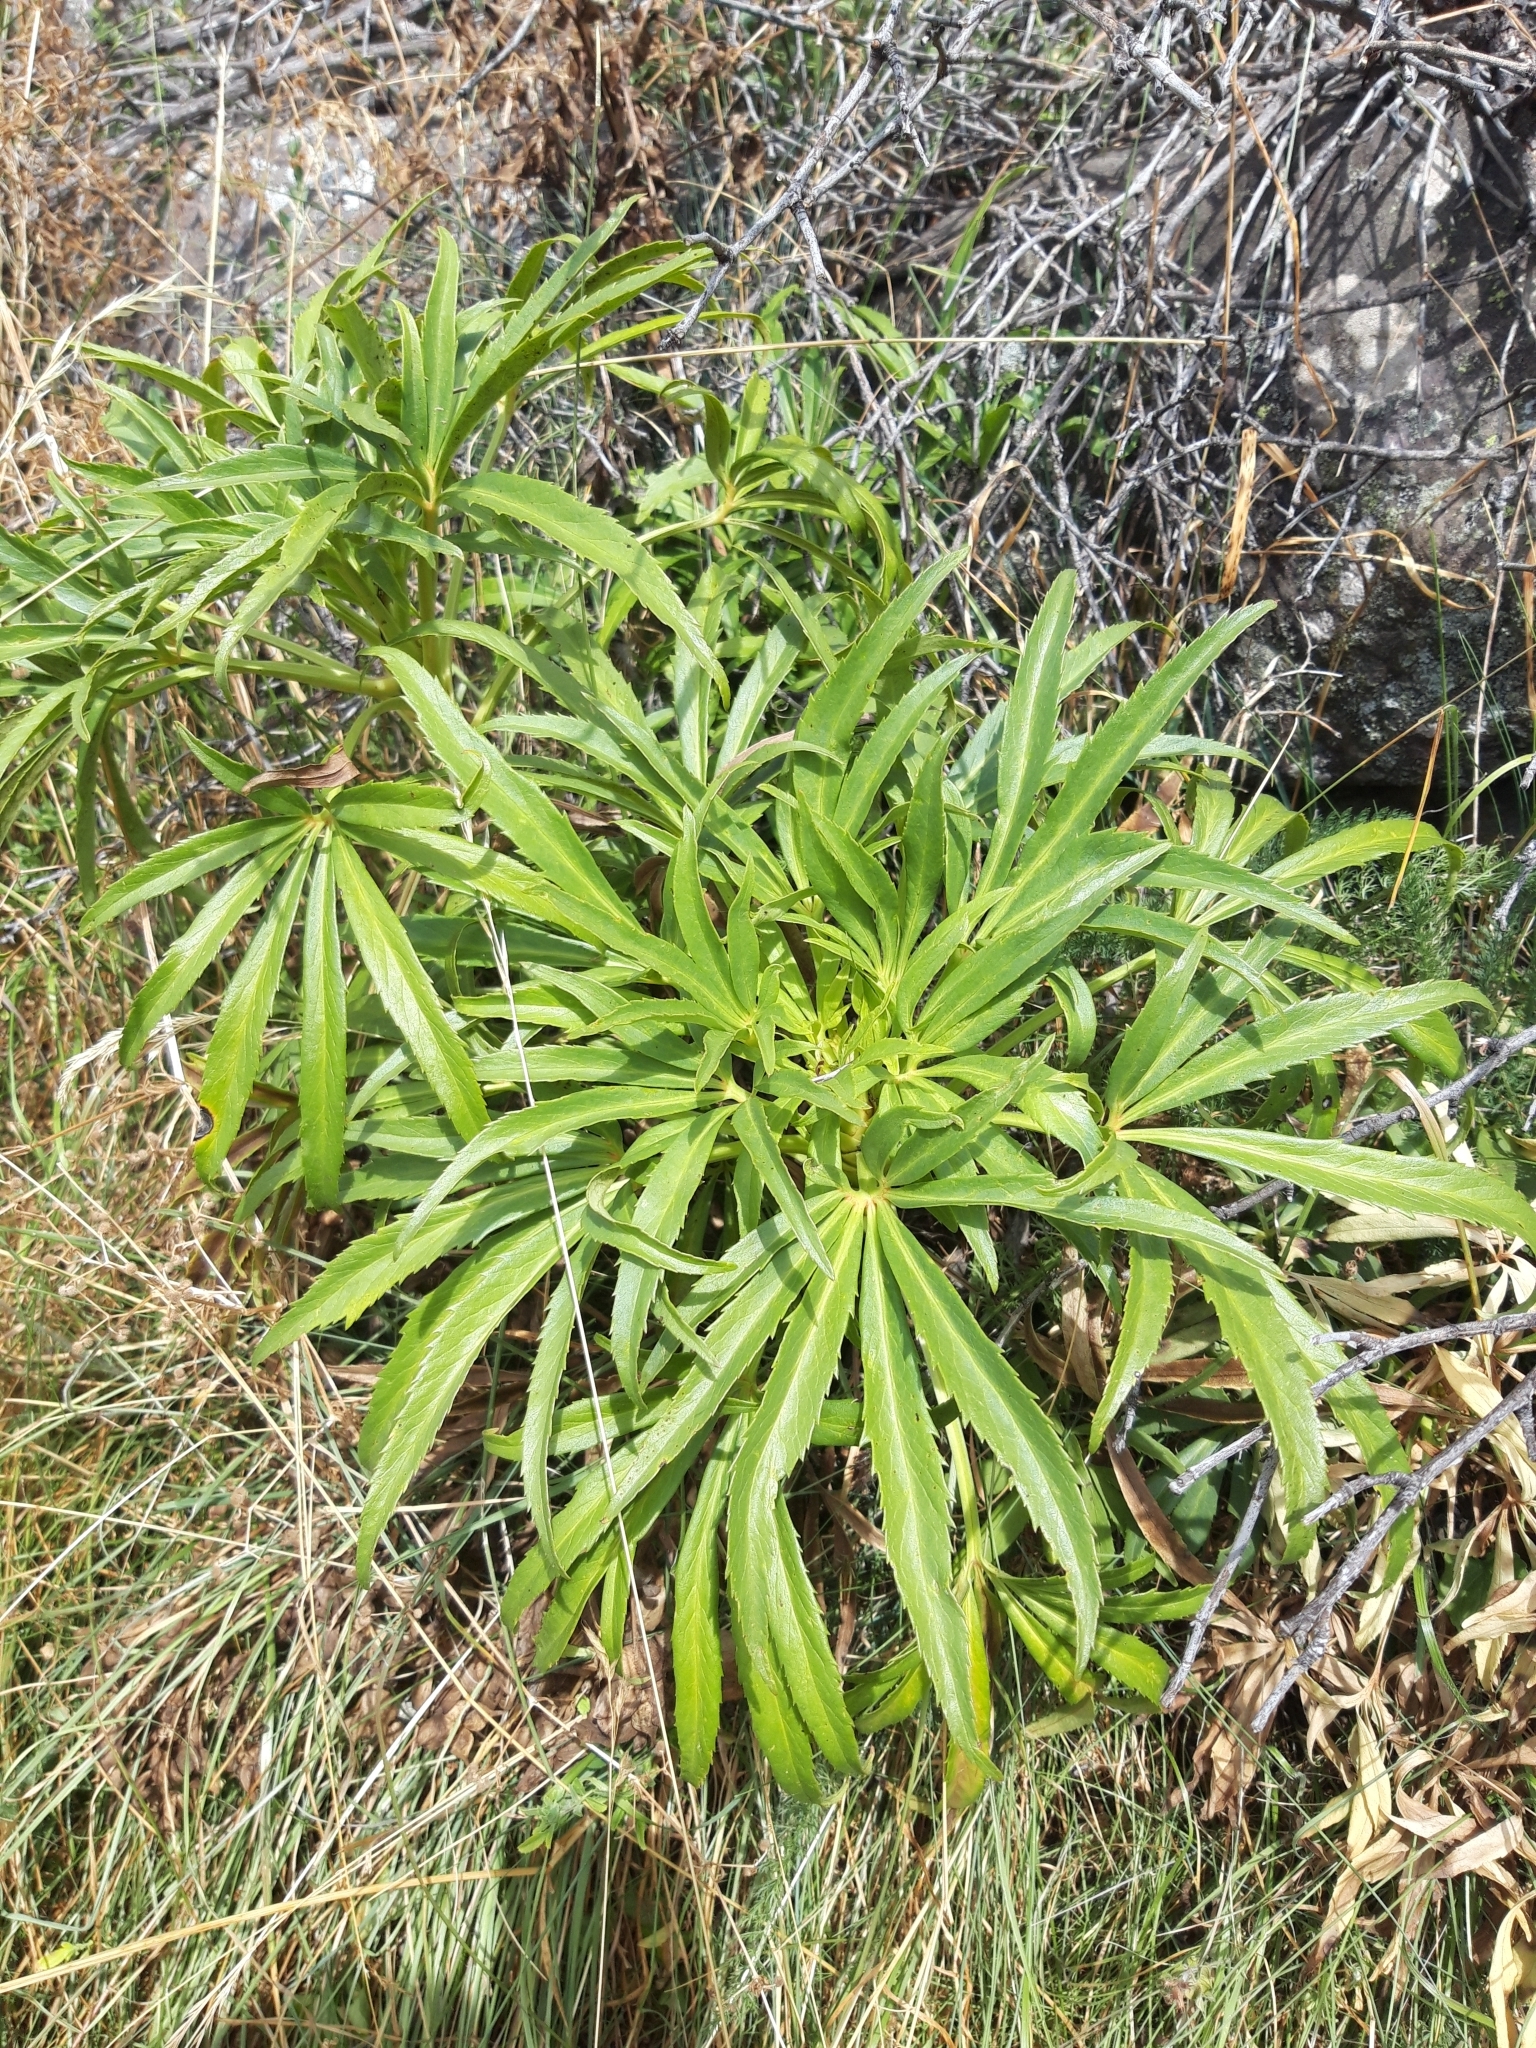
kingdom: Plantae
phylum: Tracheophyta
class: Magnoliopsida
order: Ranunculales
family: Ranunculaceae
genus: Helleborus
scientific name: Helleborus foetidus
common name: Stinking hellebore
